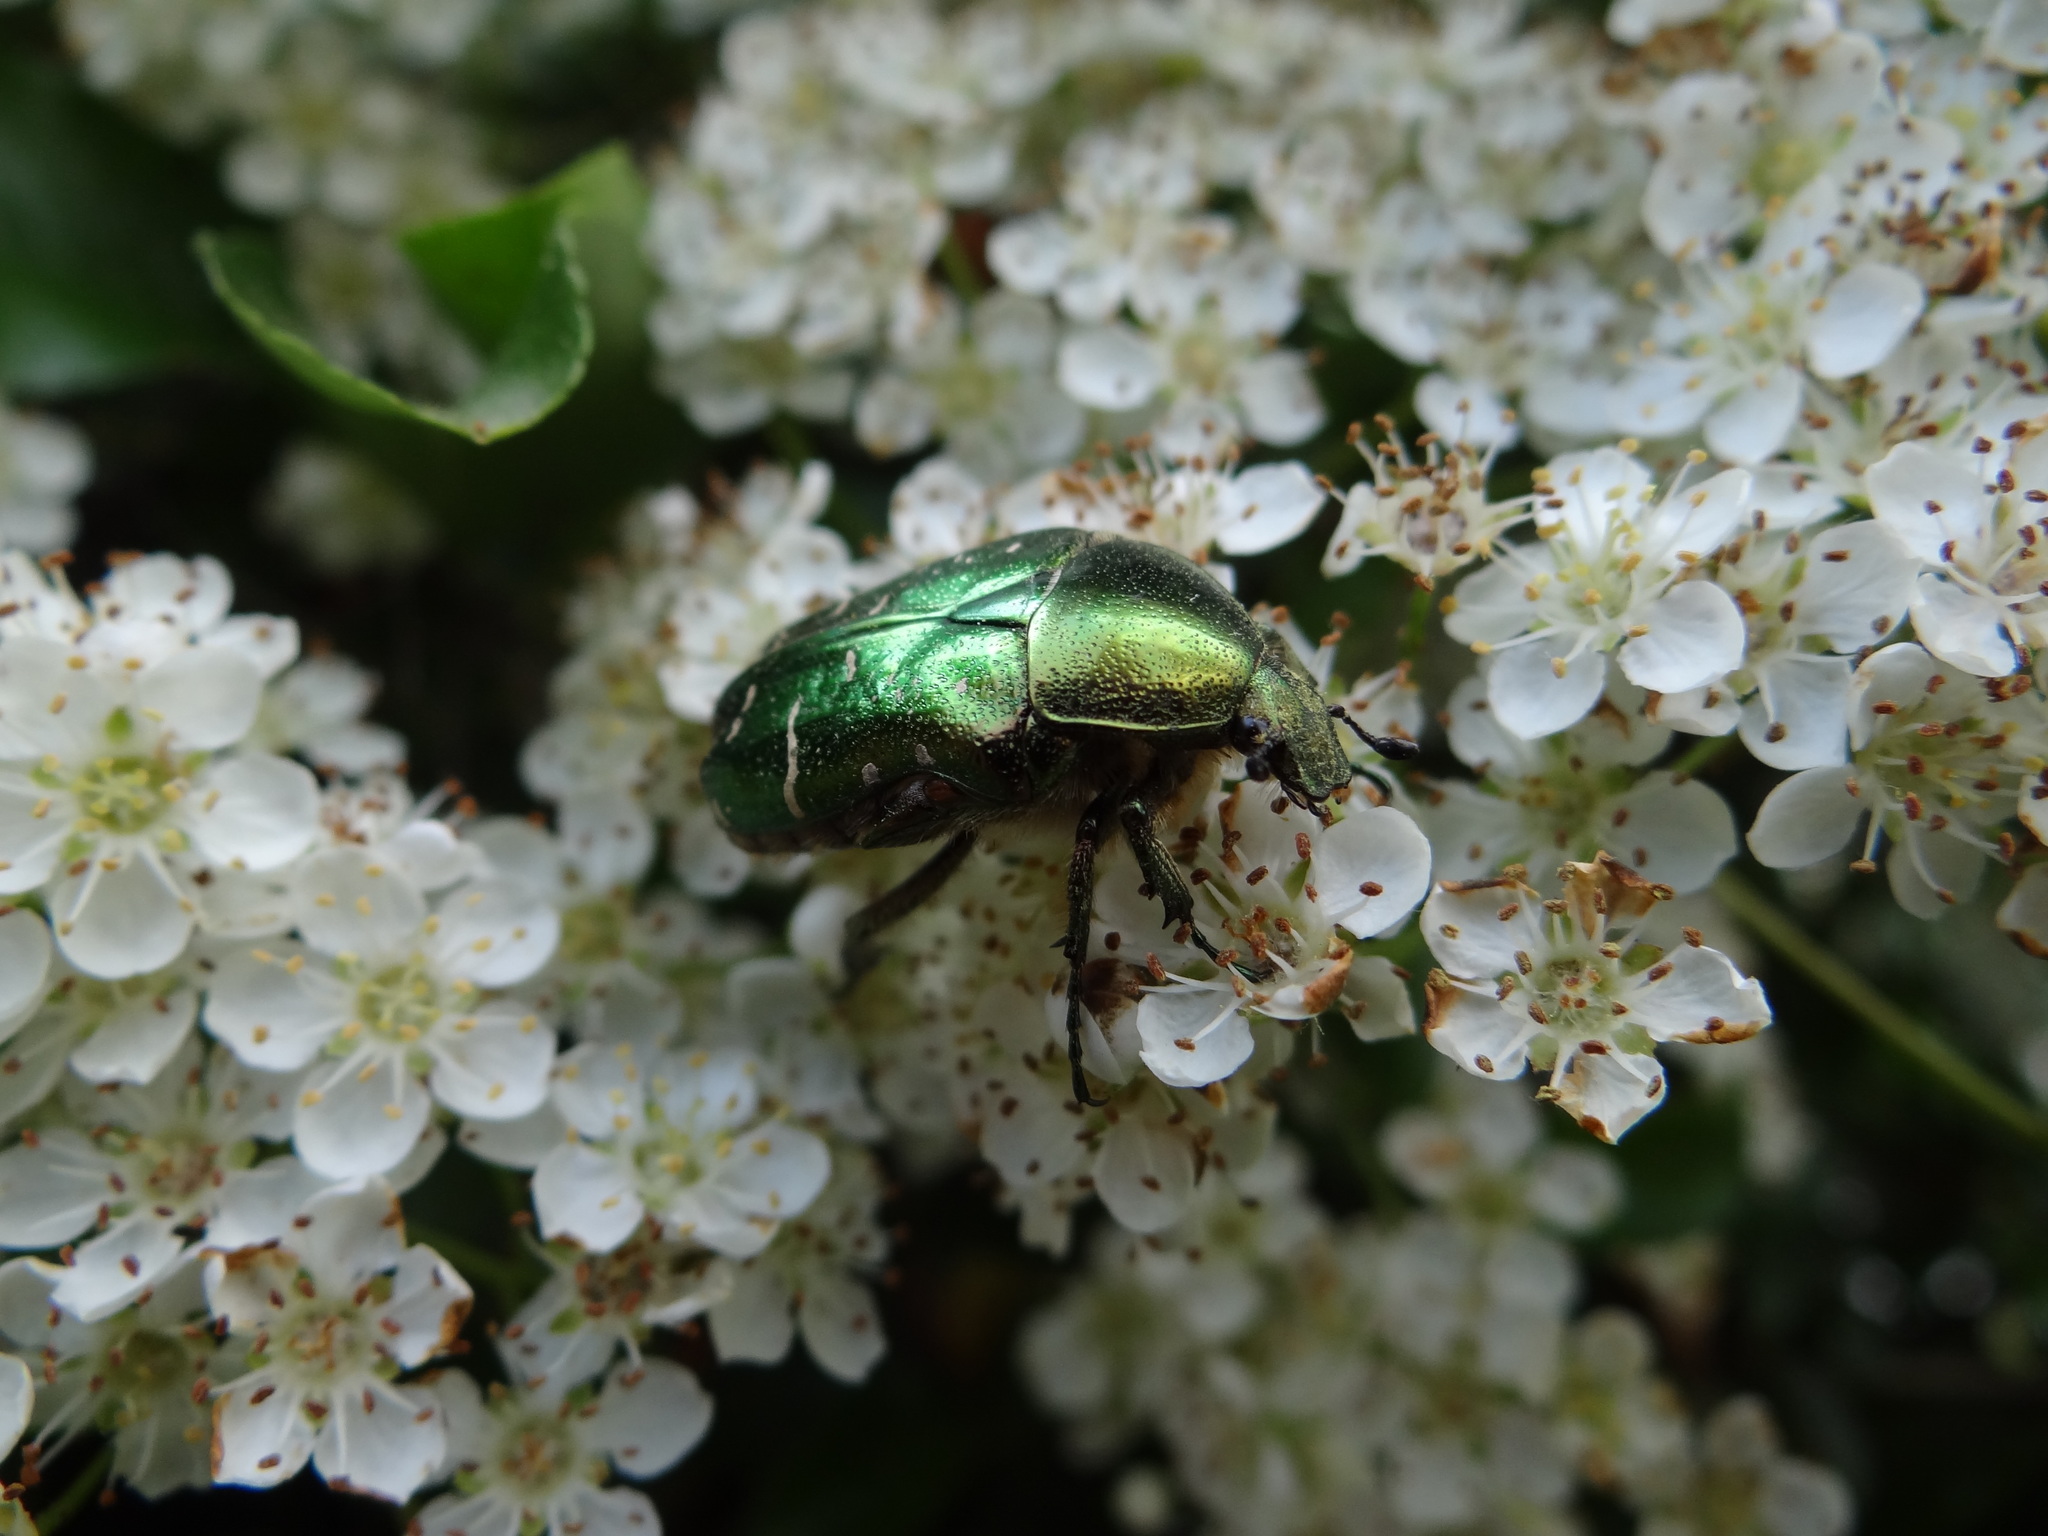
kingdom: Animalia
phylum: Arthropoda
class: Insecta
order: Coleoptera
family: Scarabaeidae
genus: Cetonia
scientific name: Cetonia aurata
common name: Rose chafer
